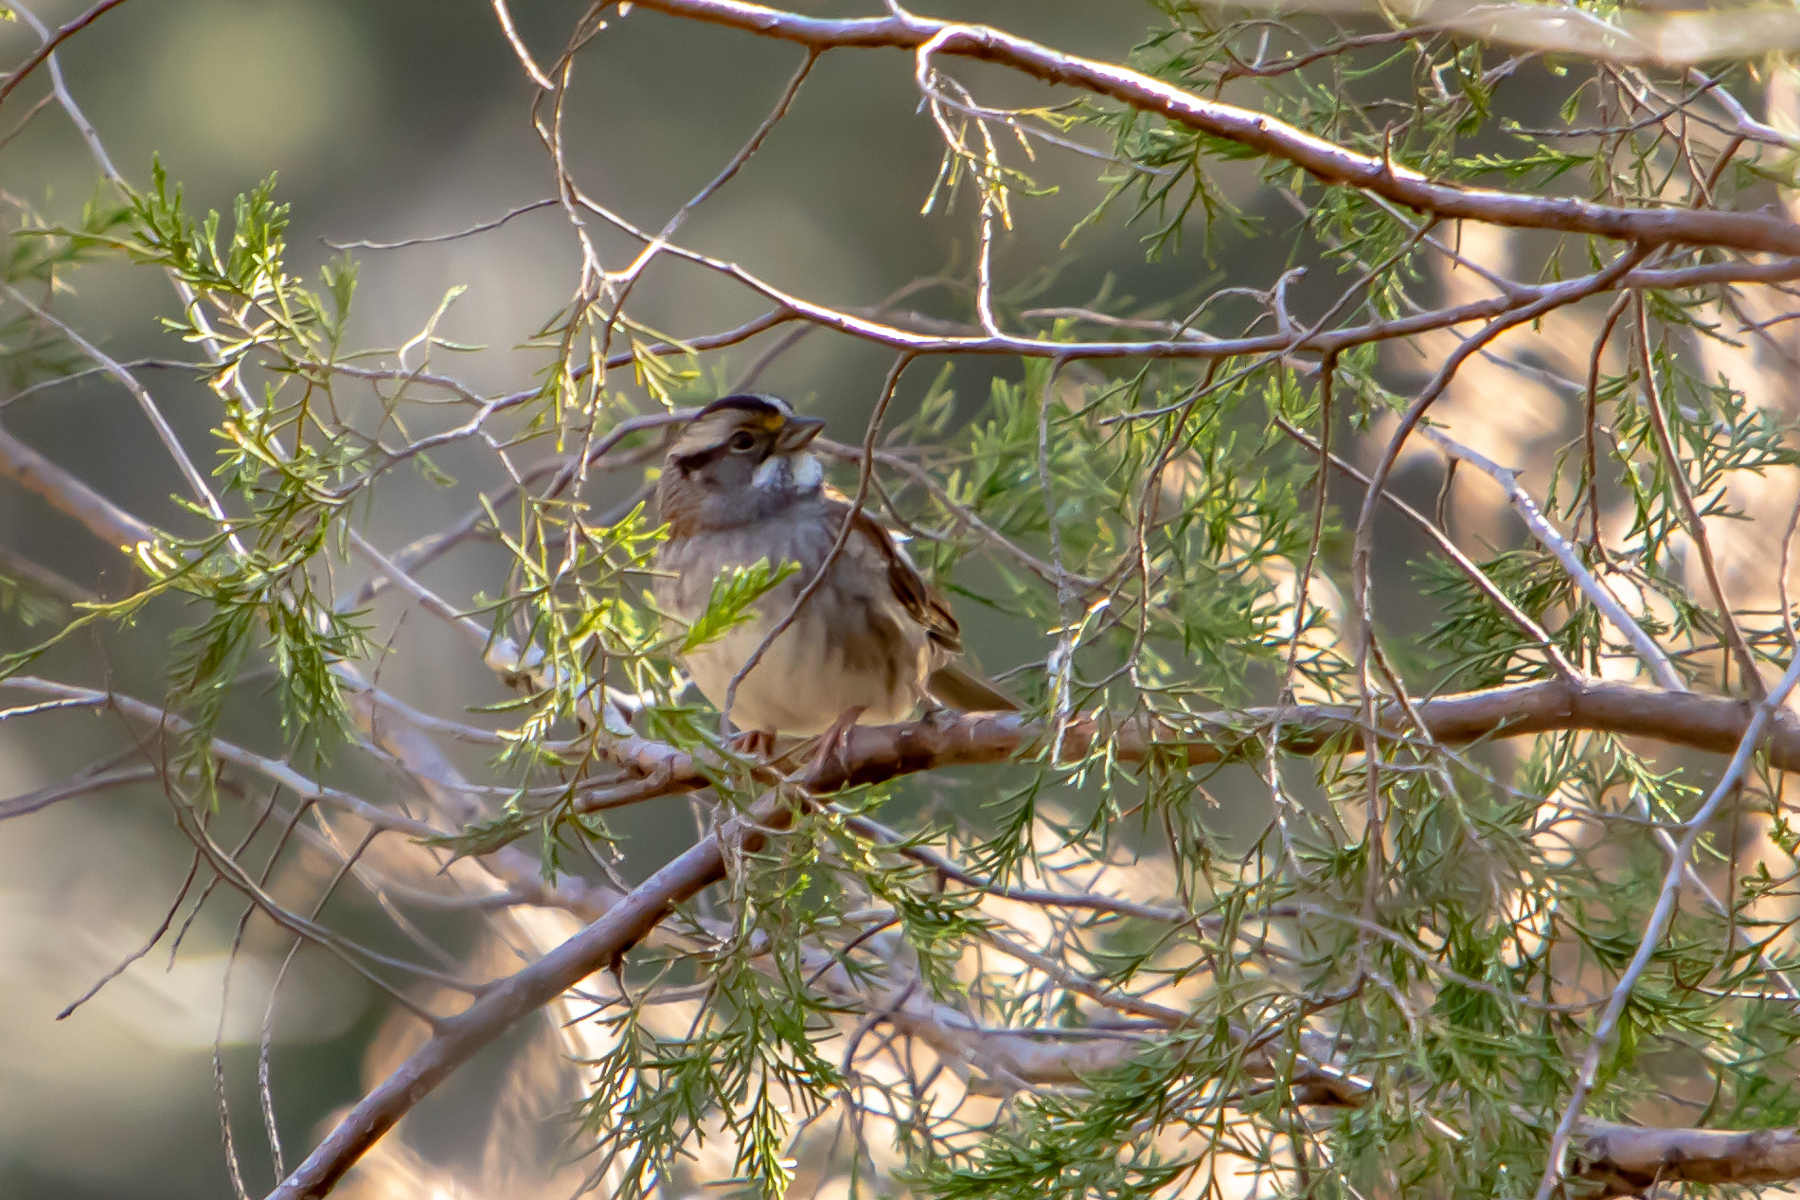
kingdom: Animalia
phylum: Chordata
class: Aves
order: Passeriformes
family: Passerellidae
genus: Zonotrichia
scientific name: Zonotrichia albicollis
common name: White-throated sparrow
